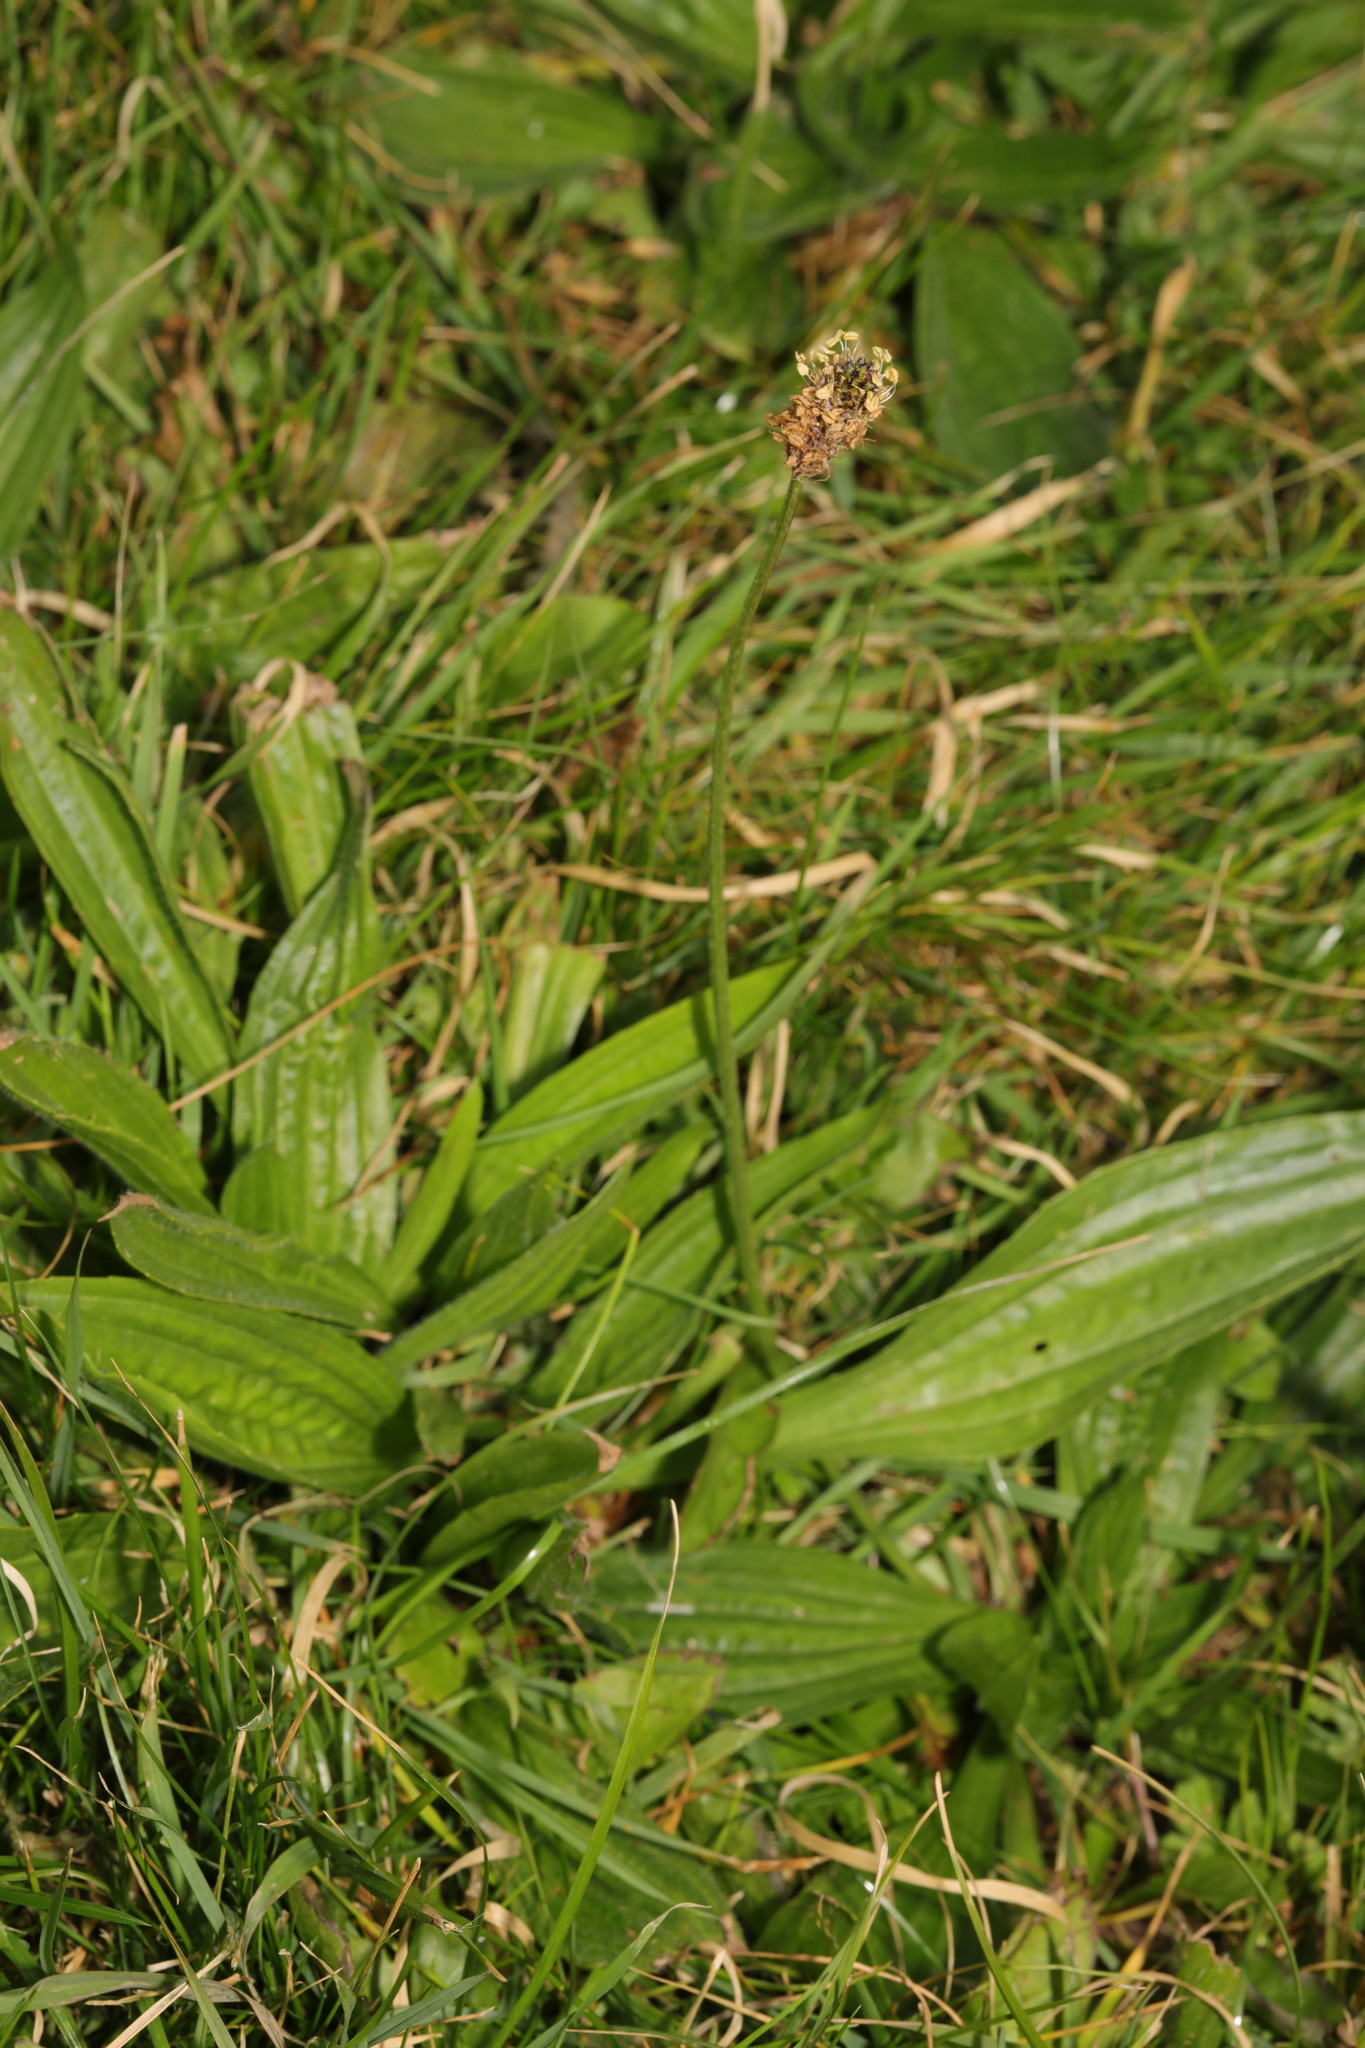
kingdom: Plantae
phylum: Tracheophyta
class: Magnoliopsida
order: Lamiales
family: Plantaginaceae
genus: Plantago
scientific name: Plantago lanceolata
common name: Ribwort plantain
